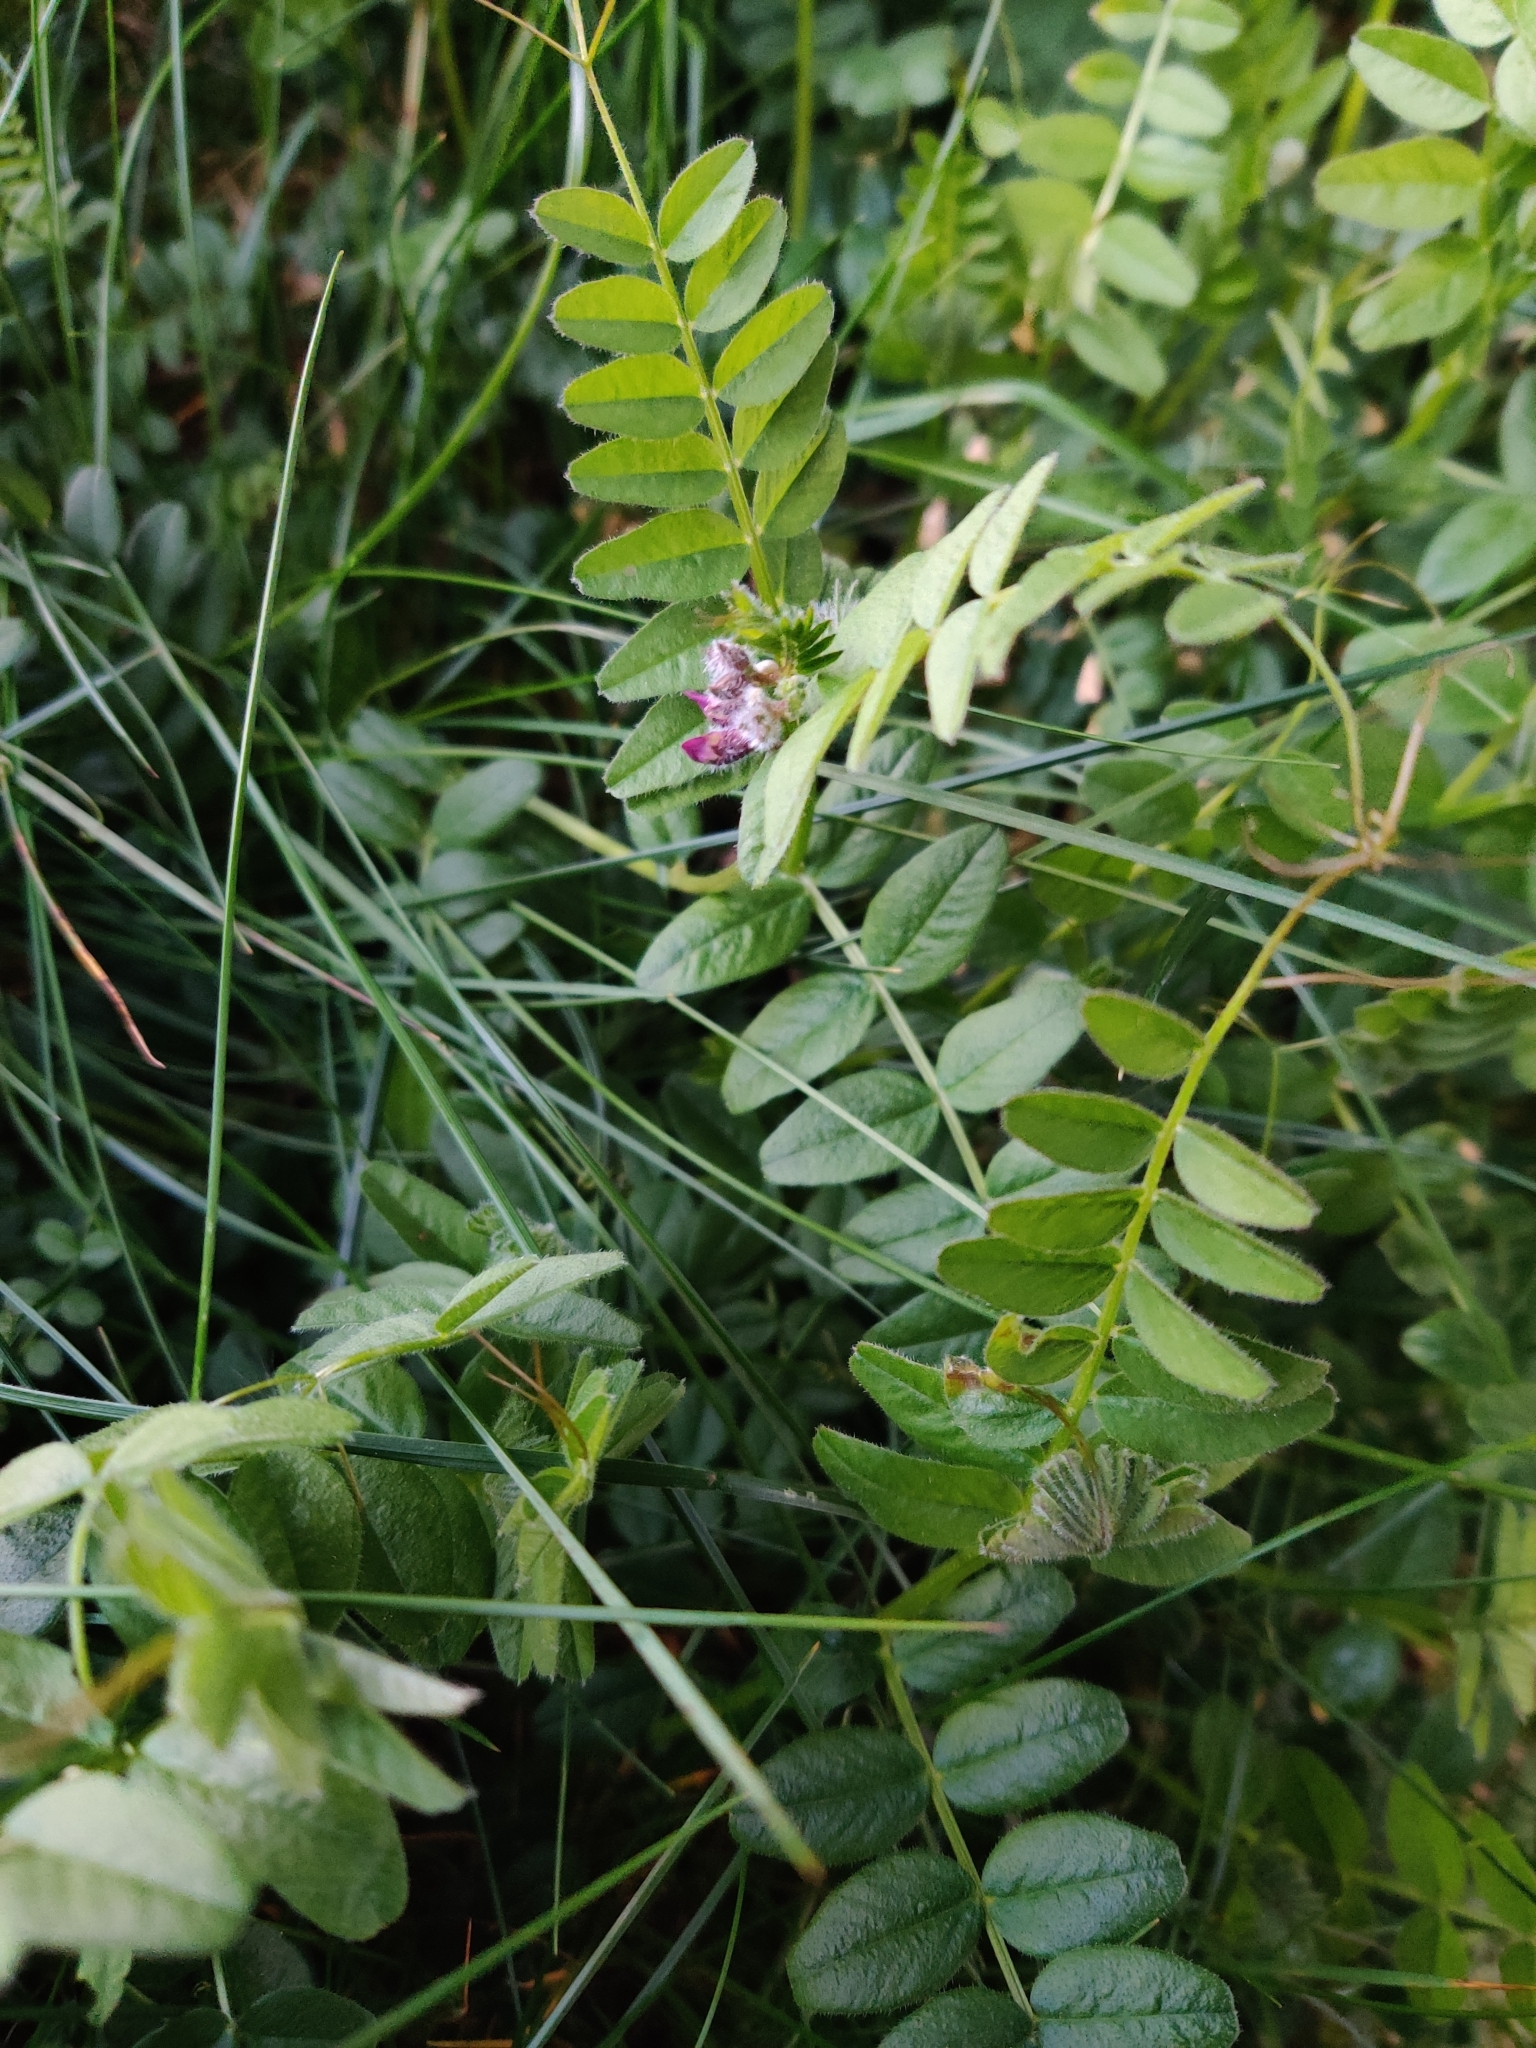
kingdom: Plantae
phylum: Tracheophyta
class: Magnoliopsida
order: Fabales
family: Fabaceae
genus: Vicia
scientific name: Vicia sepium
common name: Bush vetch
